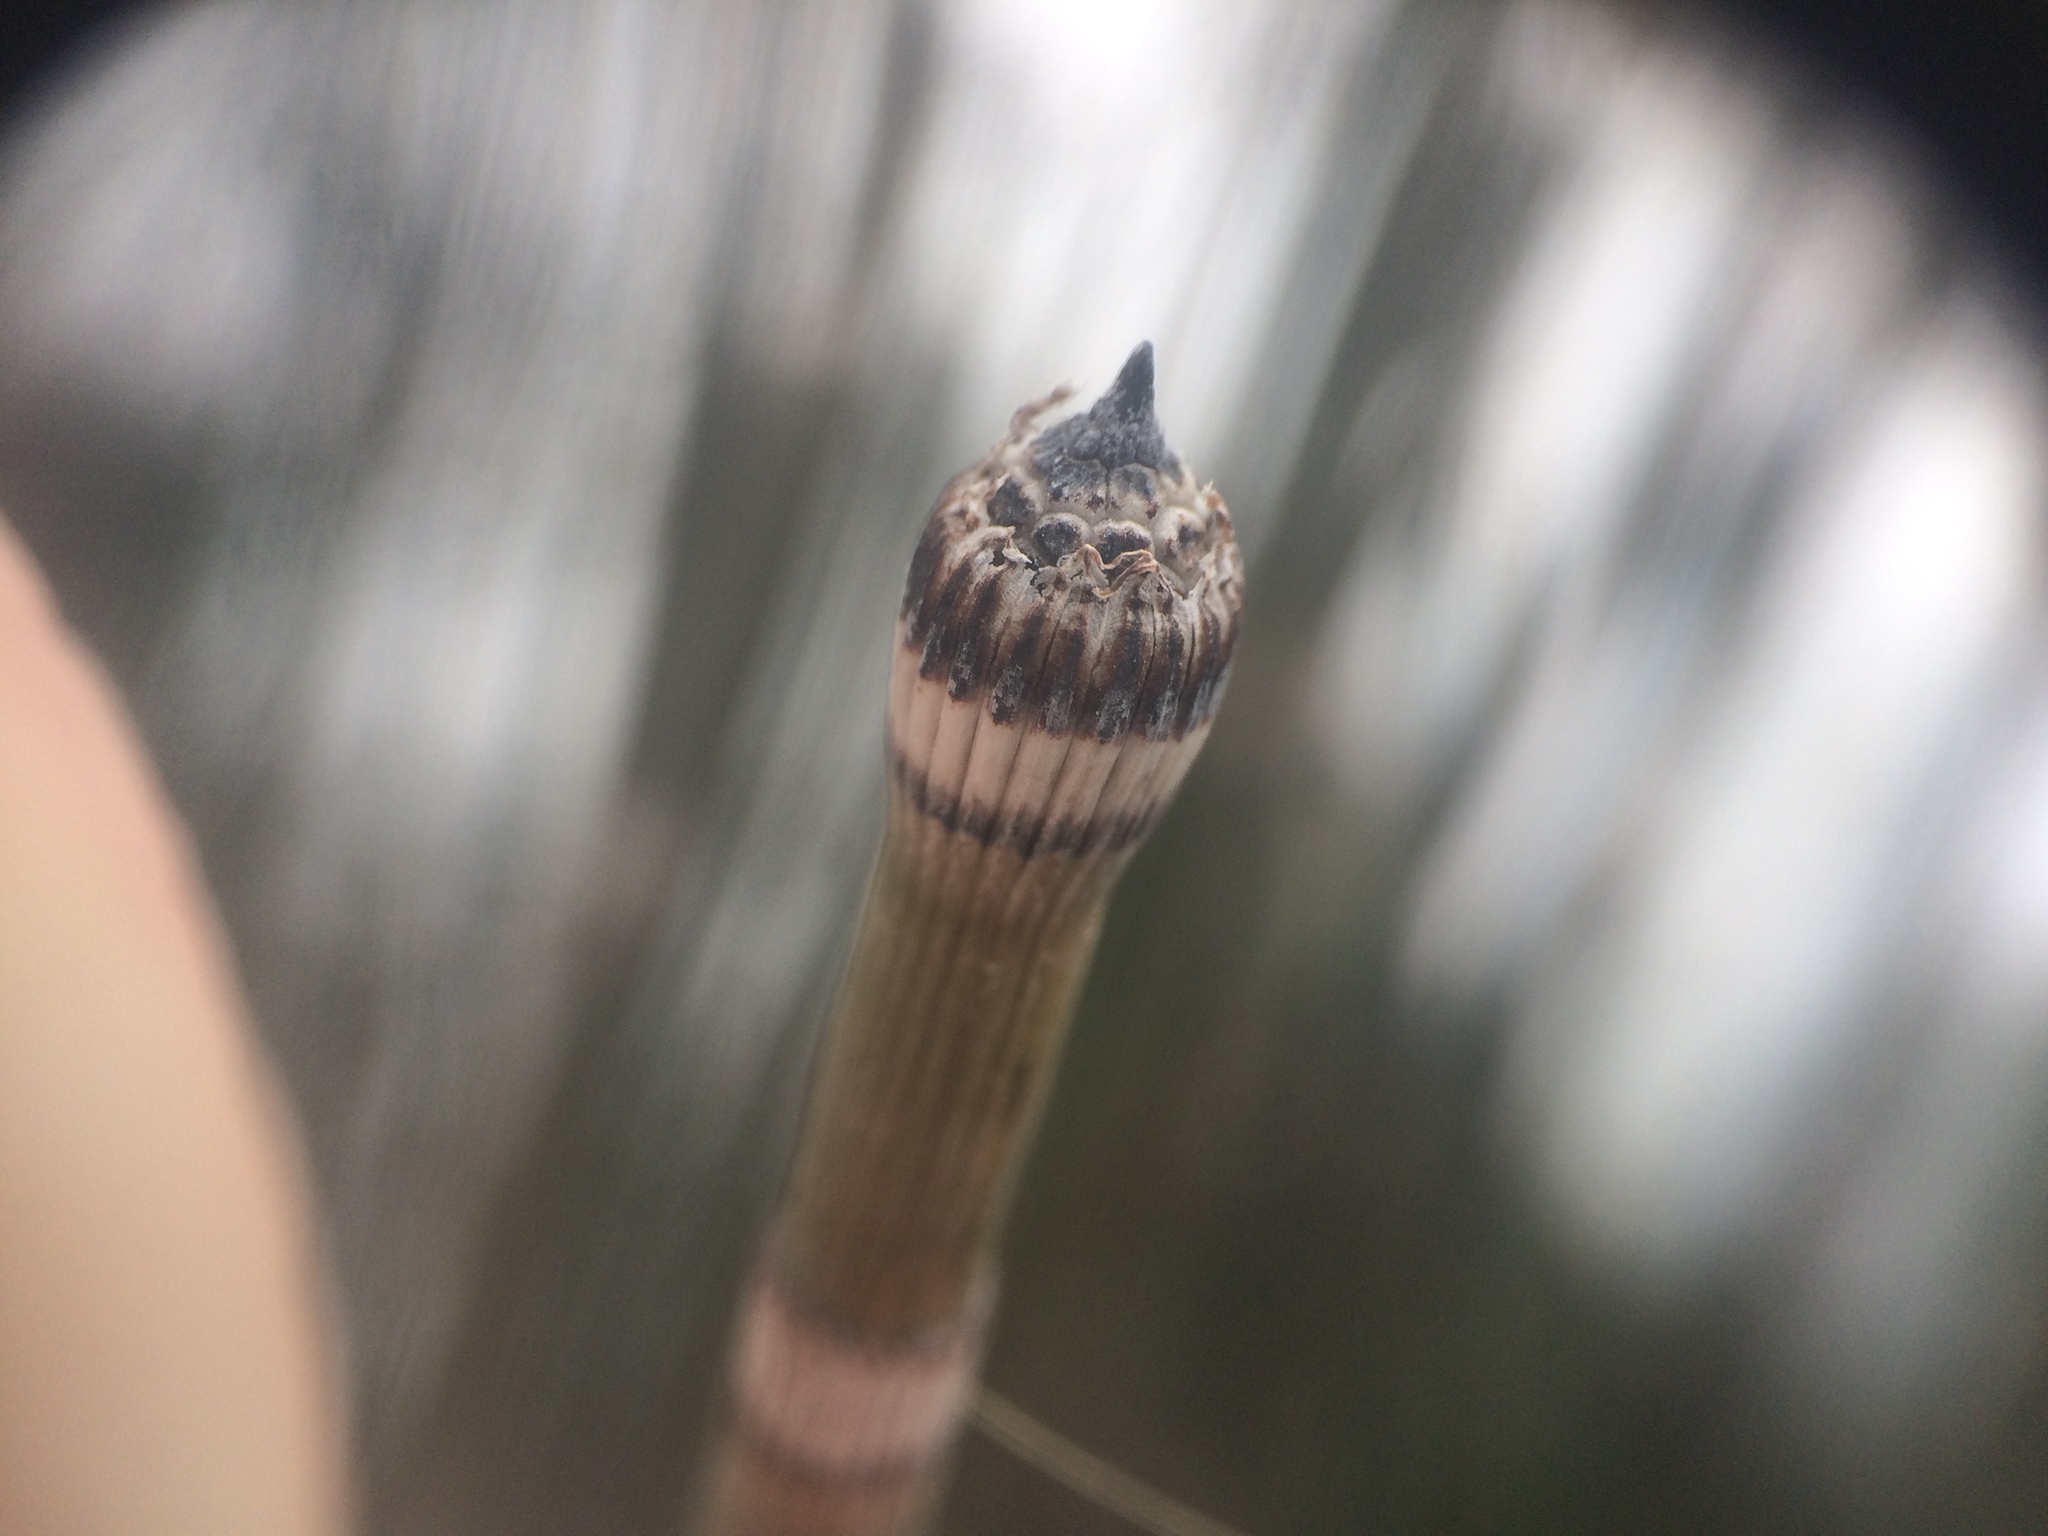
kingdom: Plantae
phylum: Tracheophyta
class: Polypodiopsida
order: Equisetales
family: Equisetaceae
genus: Equisetum
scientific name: Equisetum praealtum
